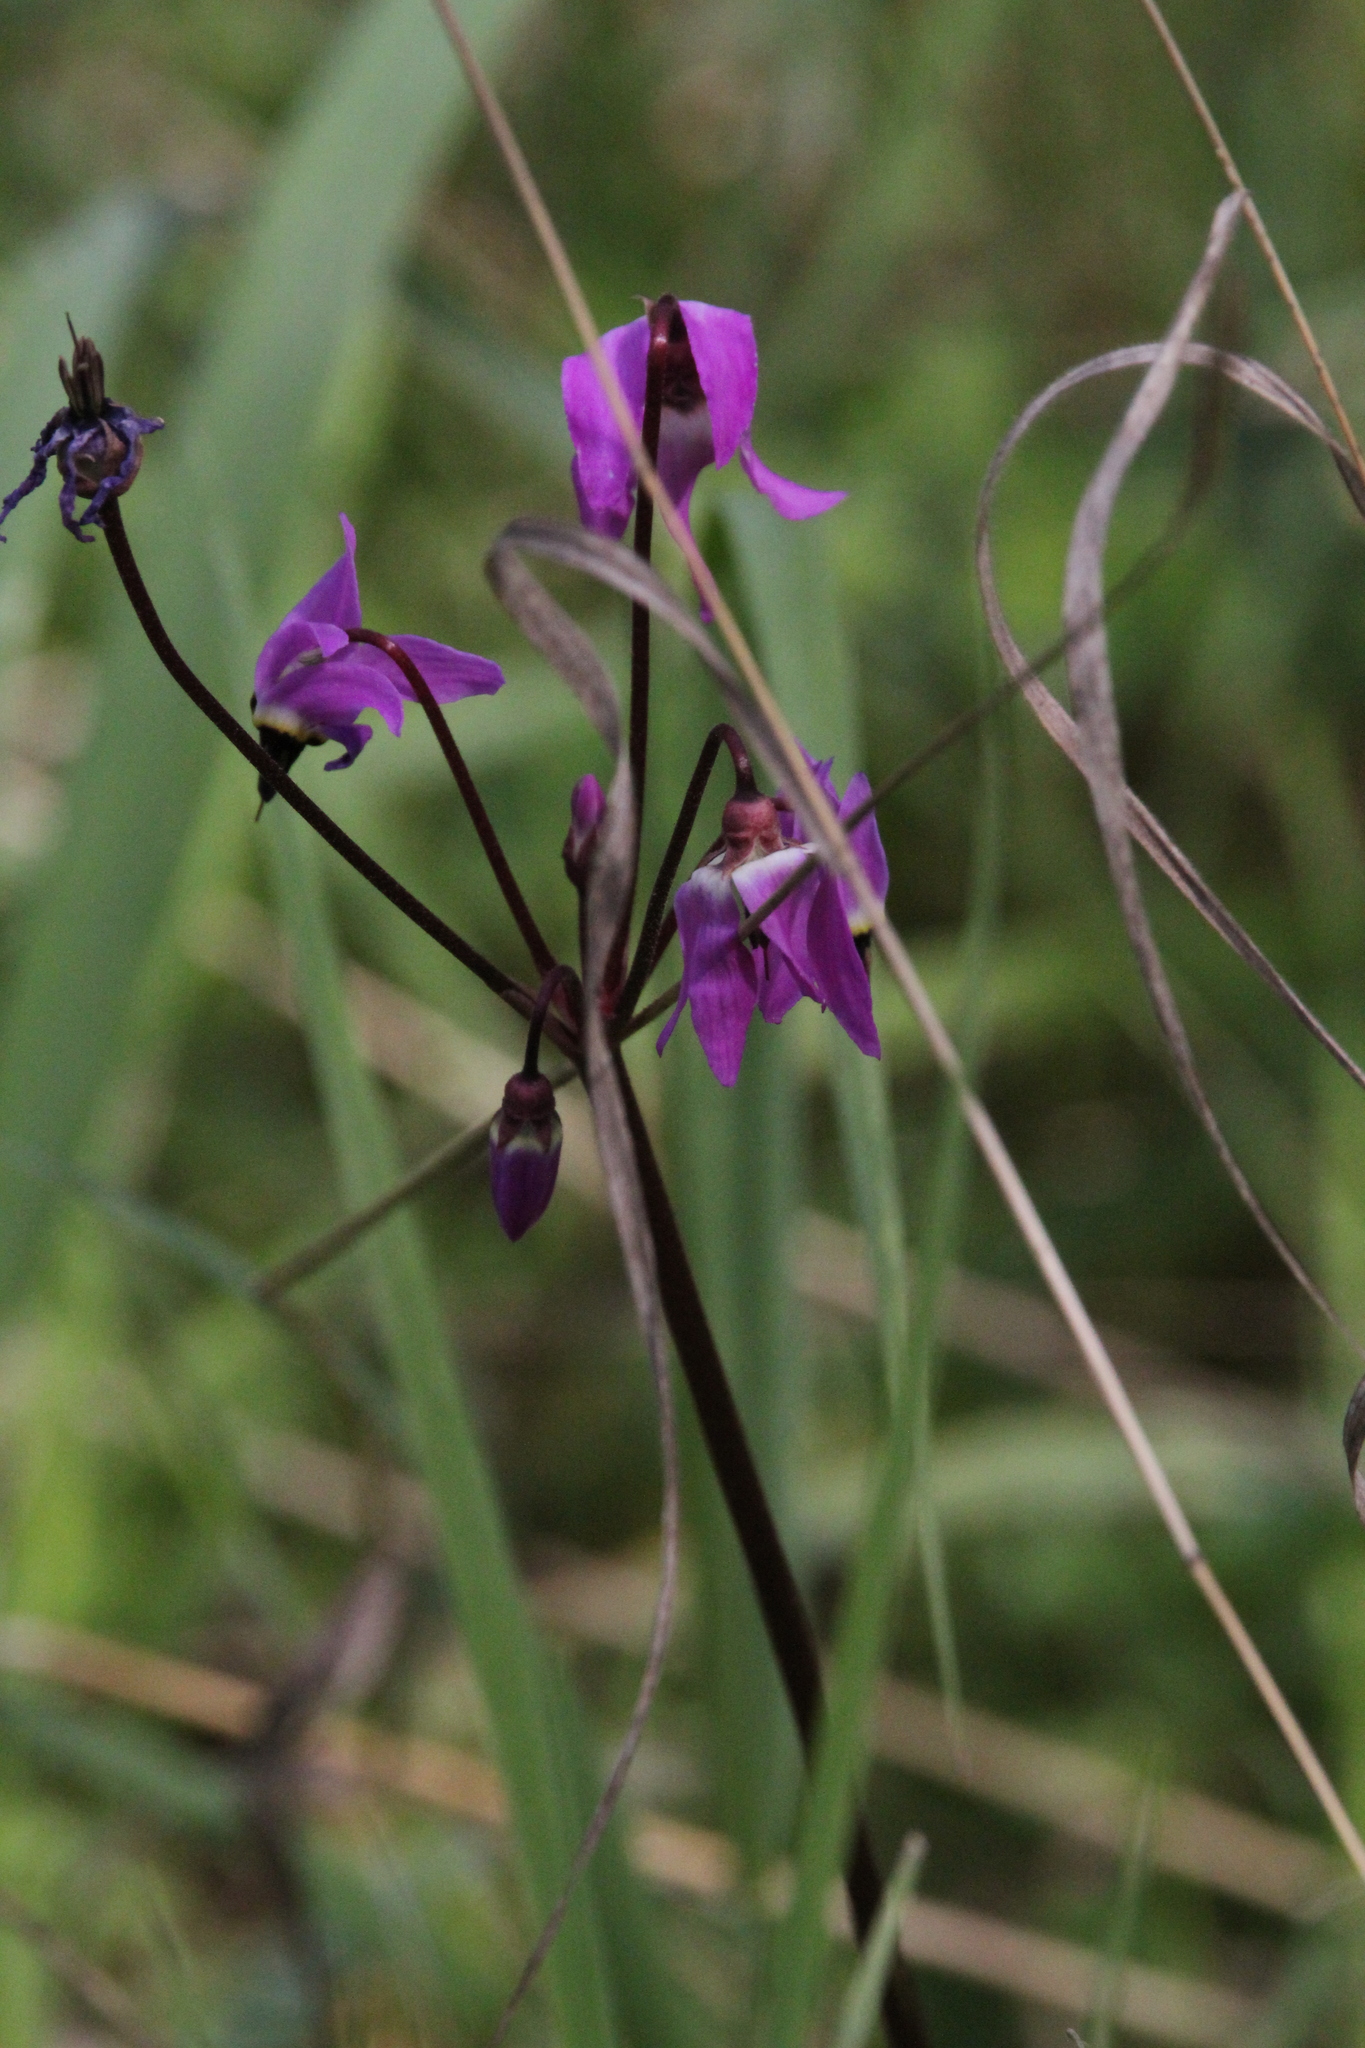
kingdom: Plantae
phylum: Tracheophyta
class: Magnoliopsida
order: Ericales
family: Primulaceae
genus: Dodecatheon
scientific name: Dodecatheon hendersonii
